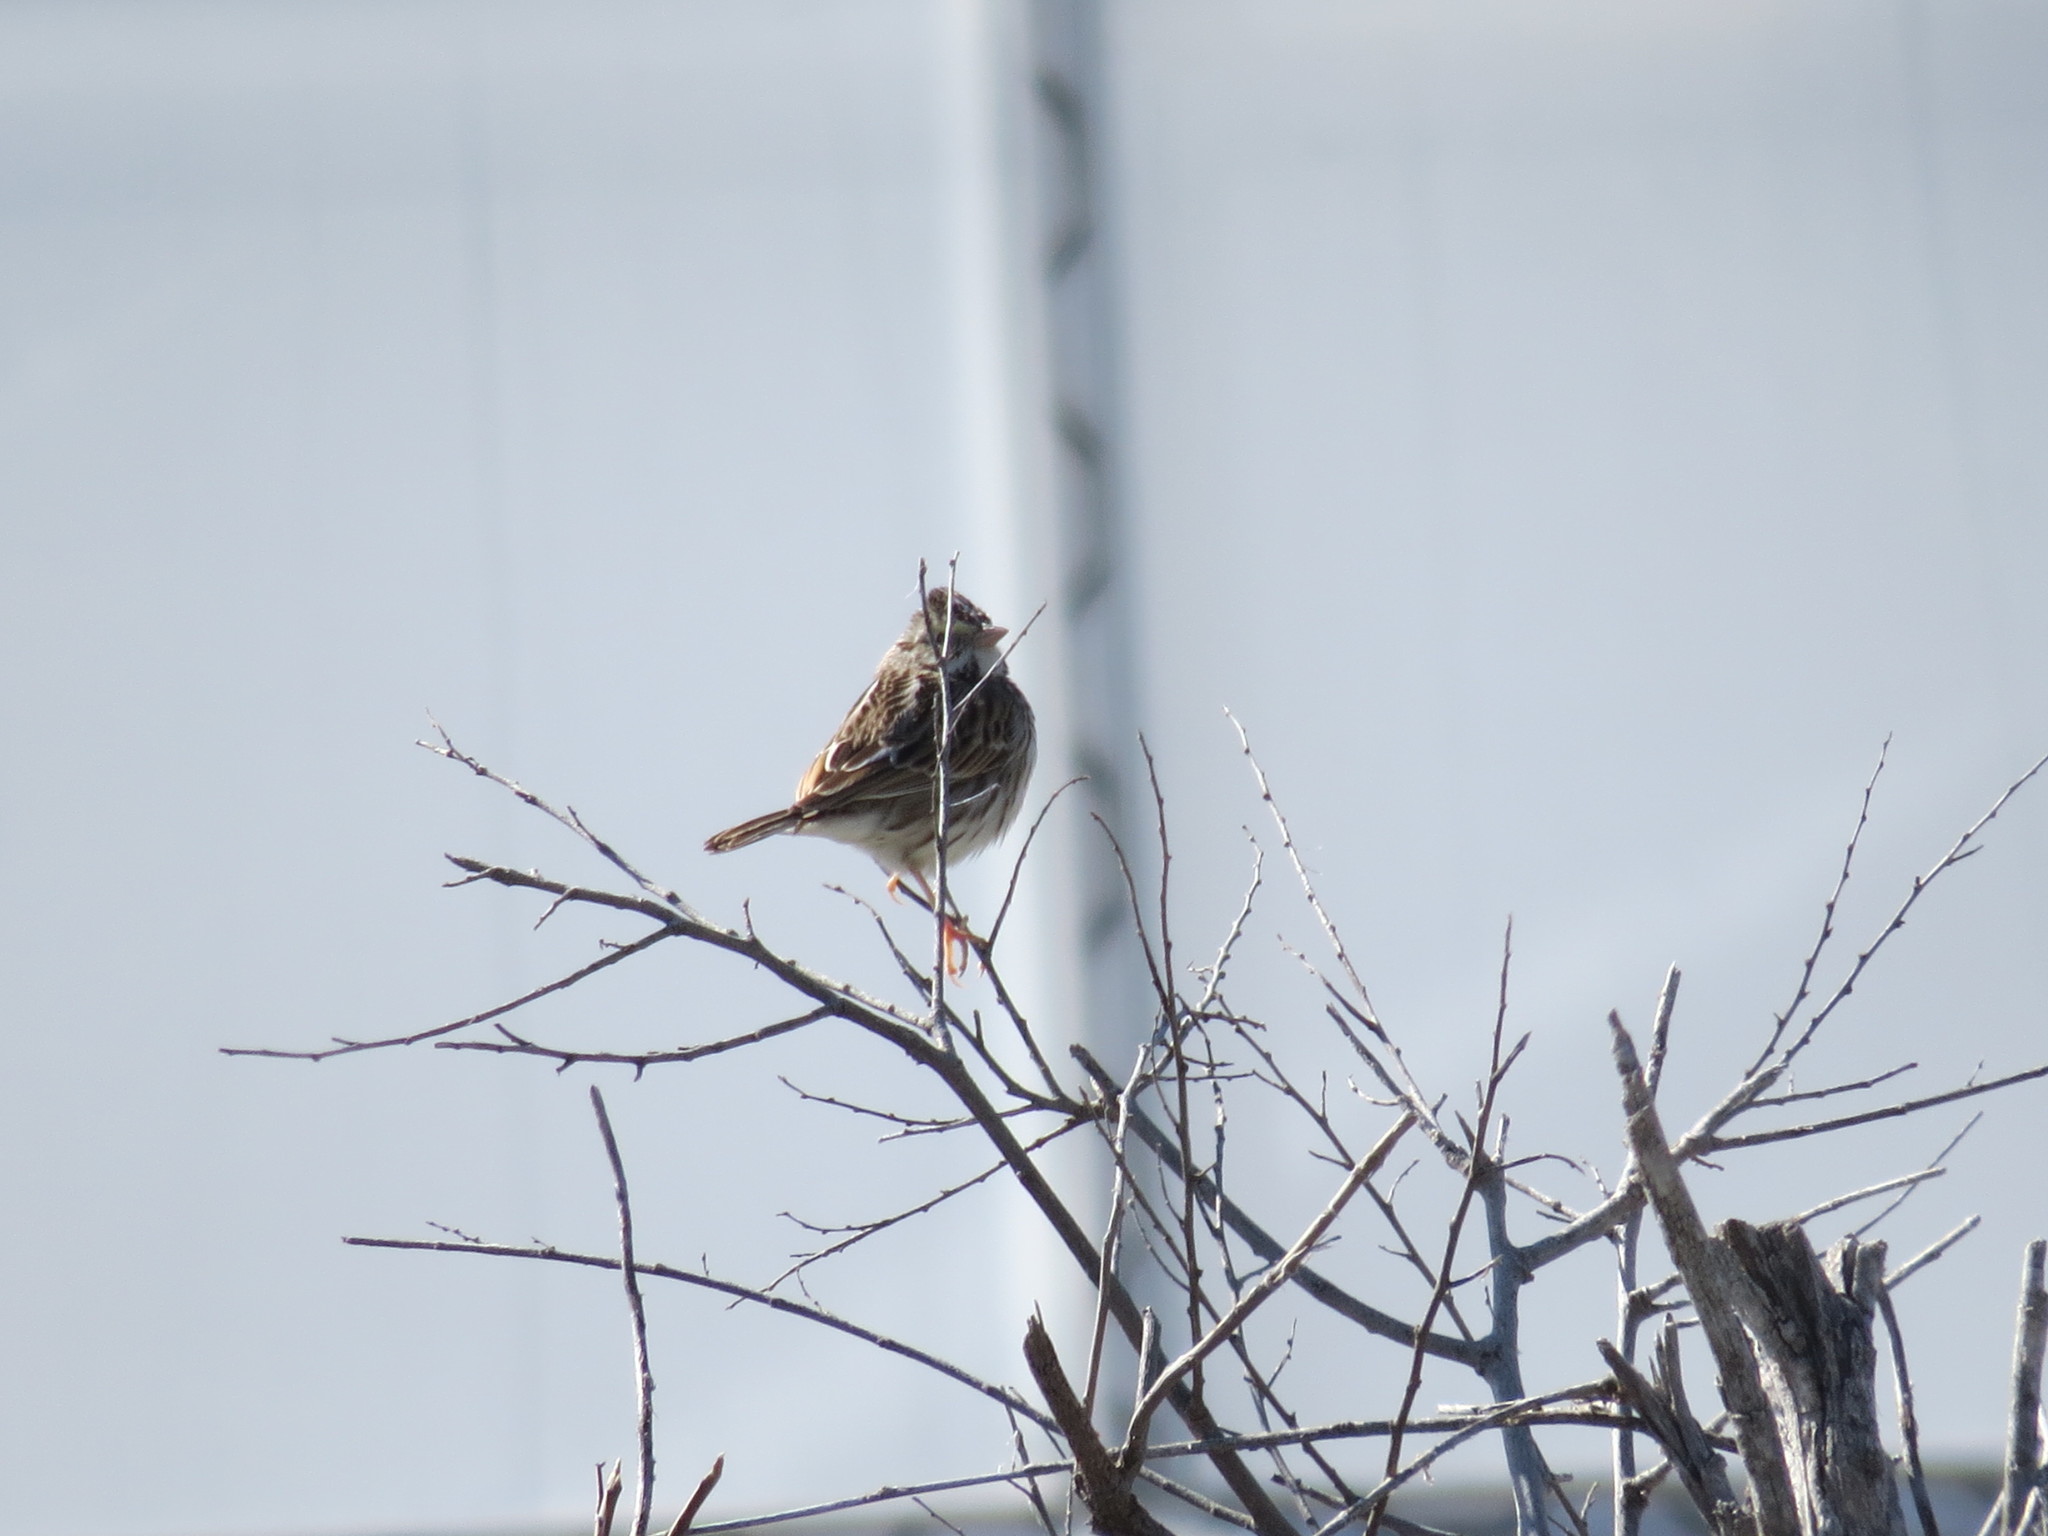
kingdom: Animalia
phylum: Chordata
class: Aves
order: Passeriformes
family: Passerellidae
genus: Passerculus
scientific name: Passerculus sandwichensis
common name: Savannah sparrow
